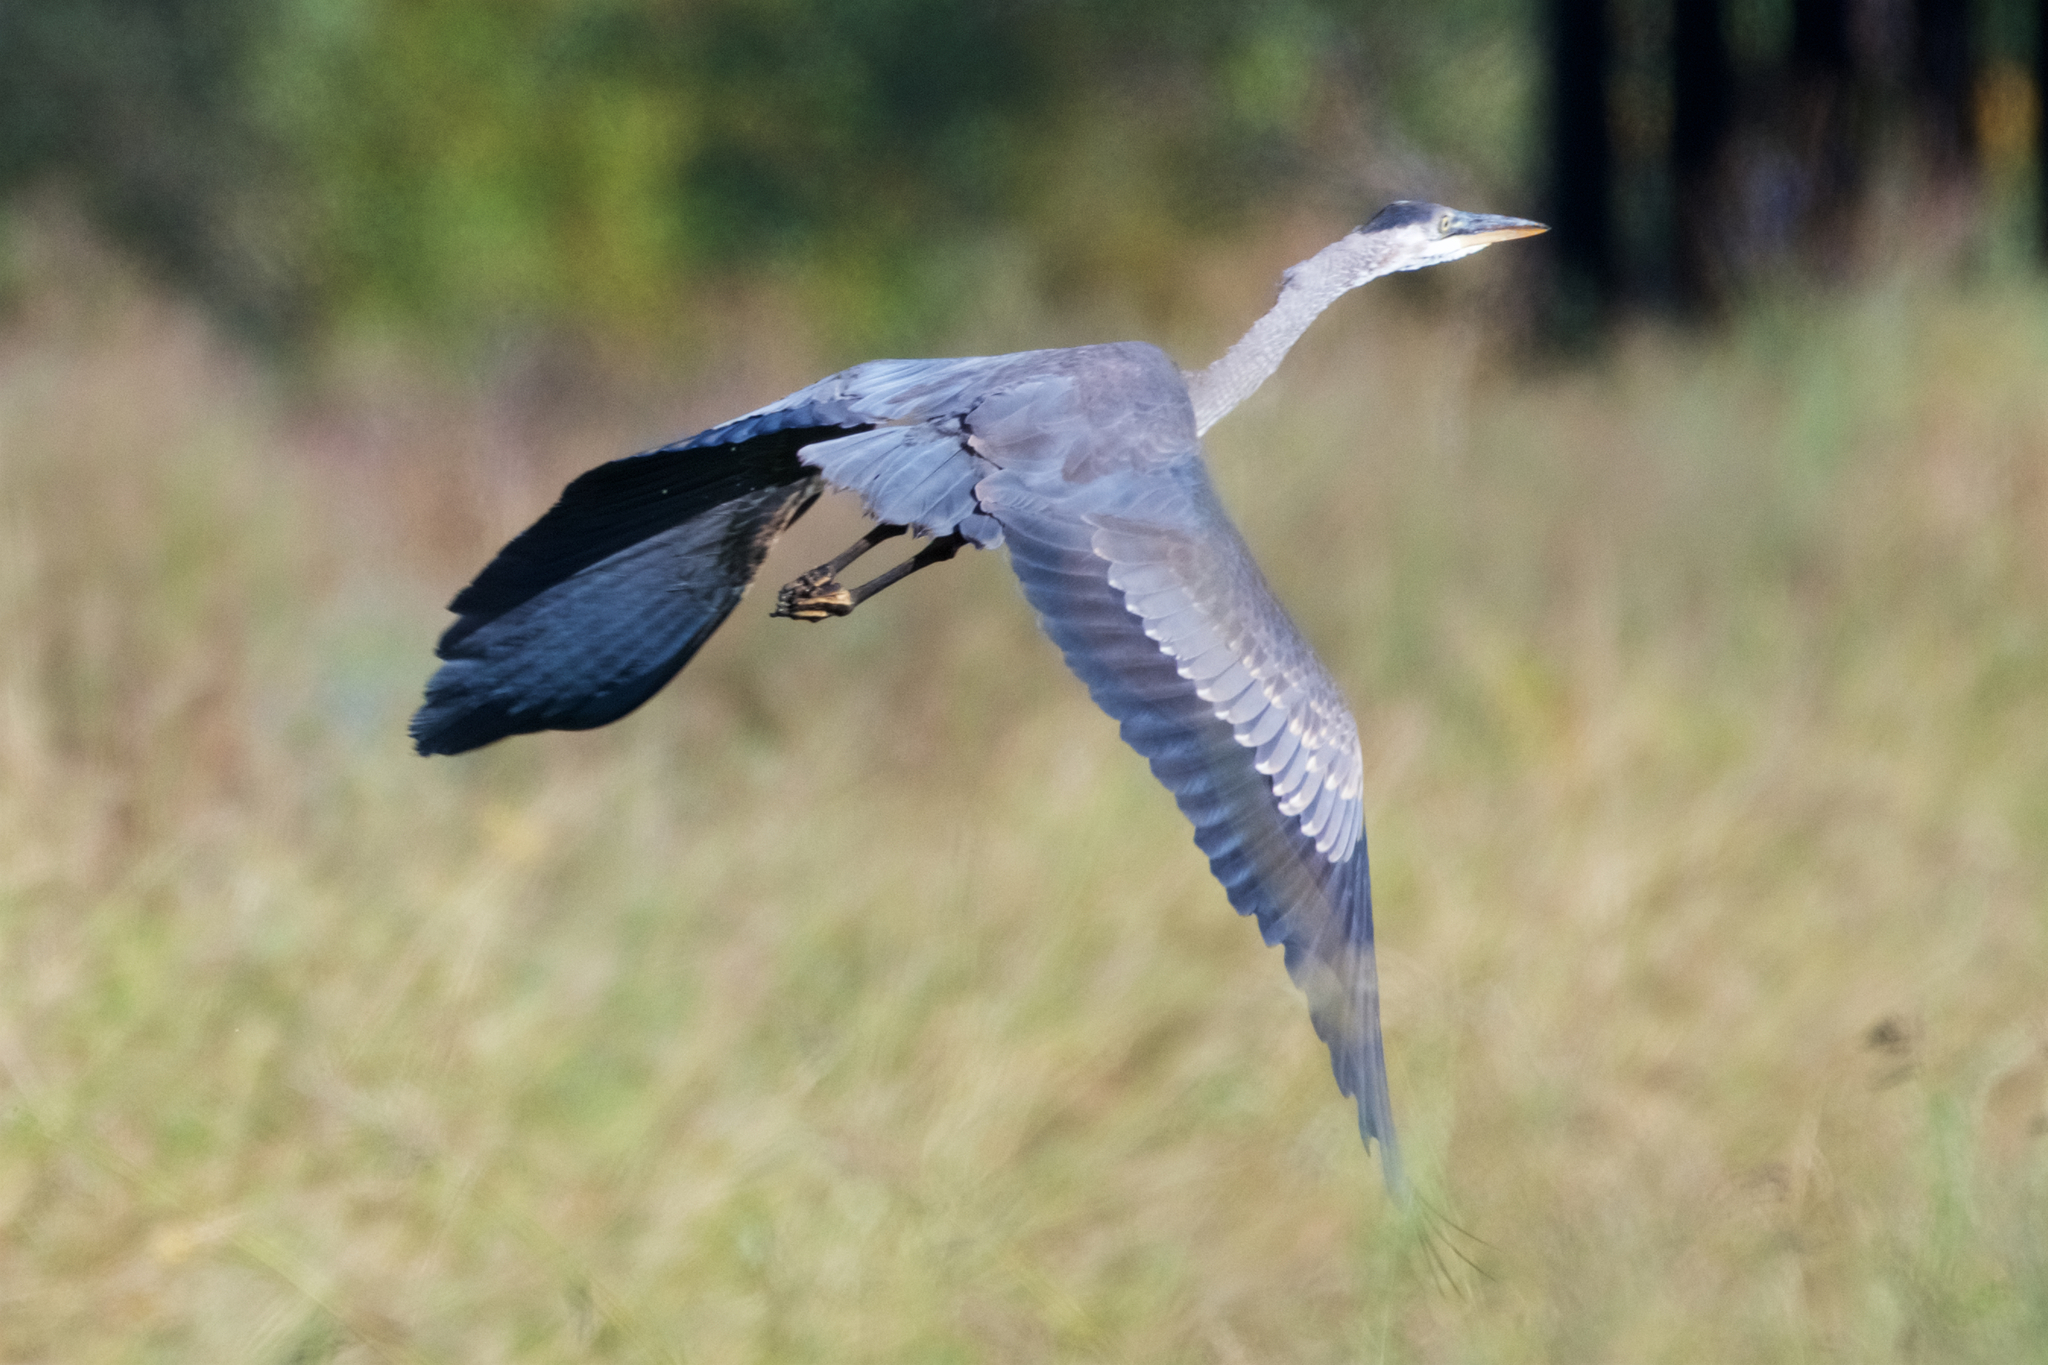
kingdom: Animalia
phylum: Chordata
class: Aves
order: Pelecaniformes
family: Ardeidae
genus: Ardea
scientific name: Ardea herodias
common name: Great blue heron
